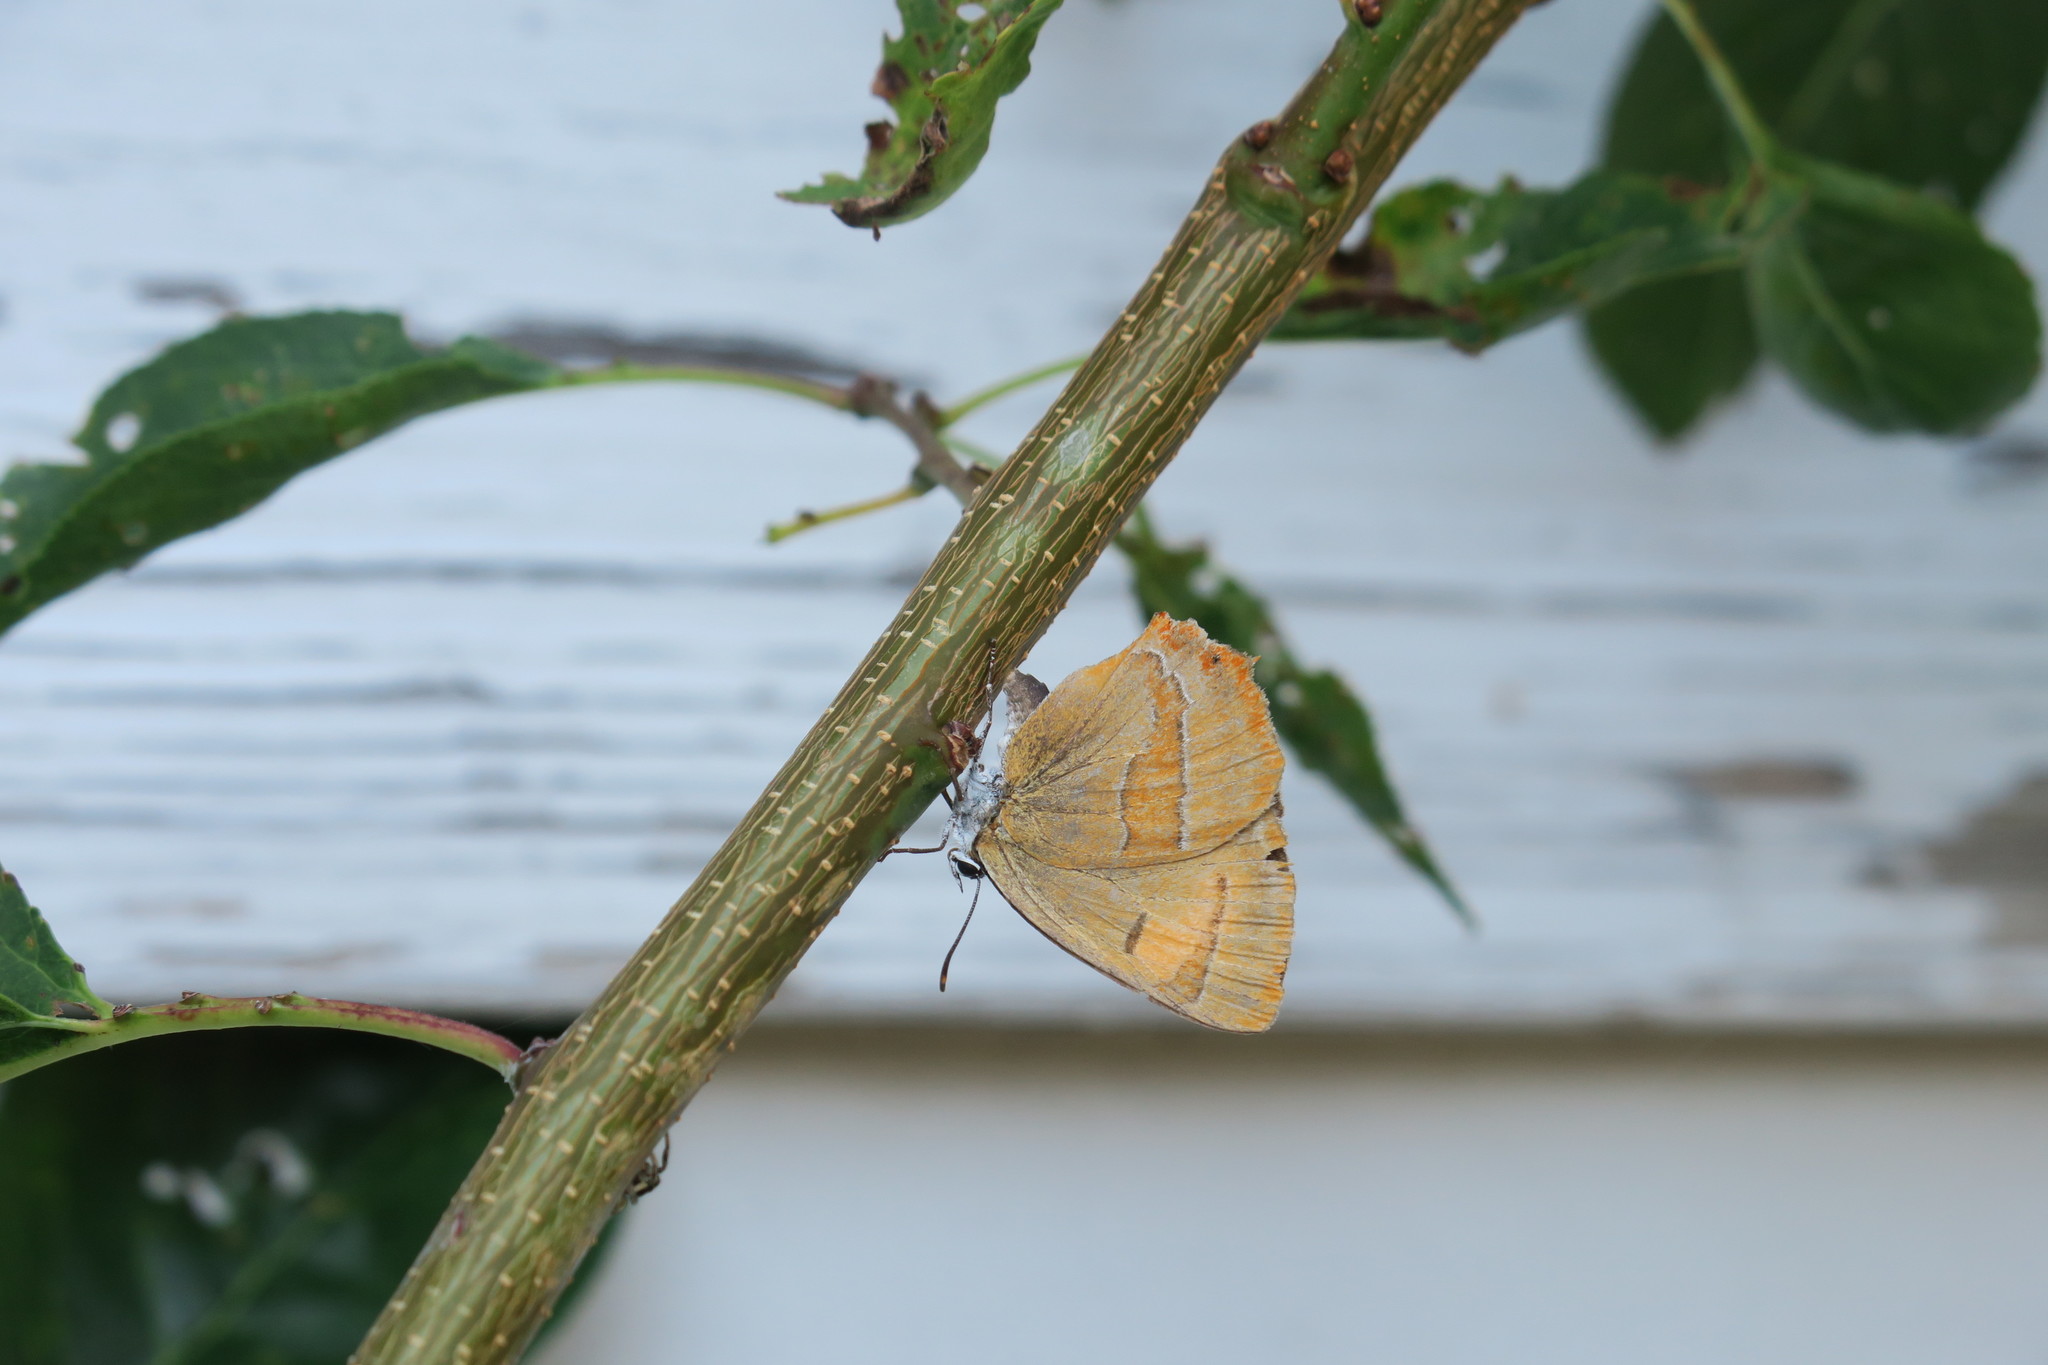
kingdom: Animalia
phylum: Arthropoda
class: Insecta
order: Lepidoptera
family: Lycaenidae
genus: Thecla
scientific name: Thecla betulae
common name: Brown hairstreak
